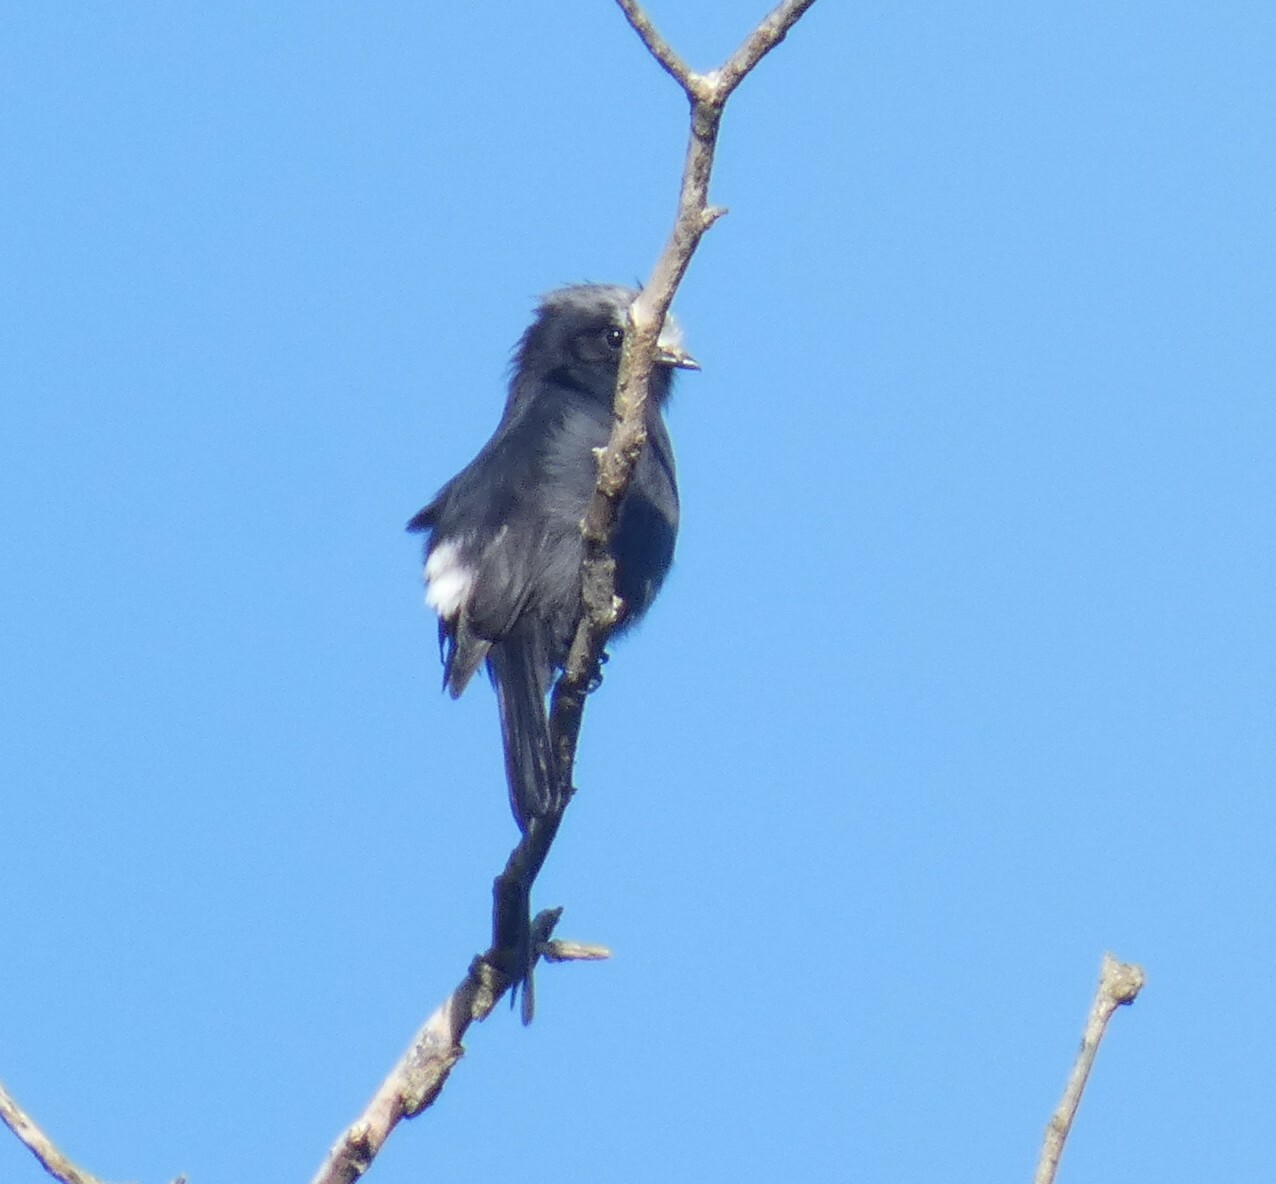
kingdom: Animalia
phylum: Chordata
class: Aves
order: Passeriformes
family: Tyrannidae
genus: Colonia
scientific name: Colonia colonus
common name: Long-tailed tyrant
